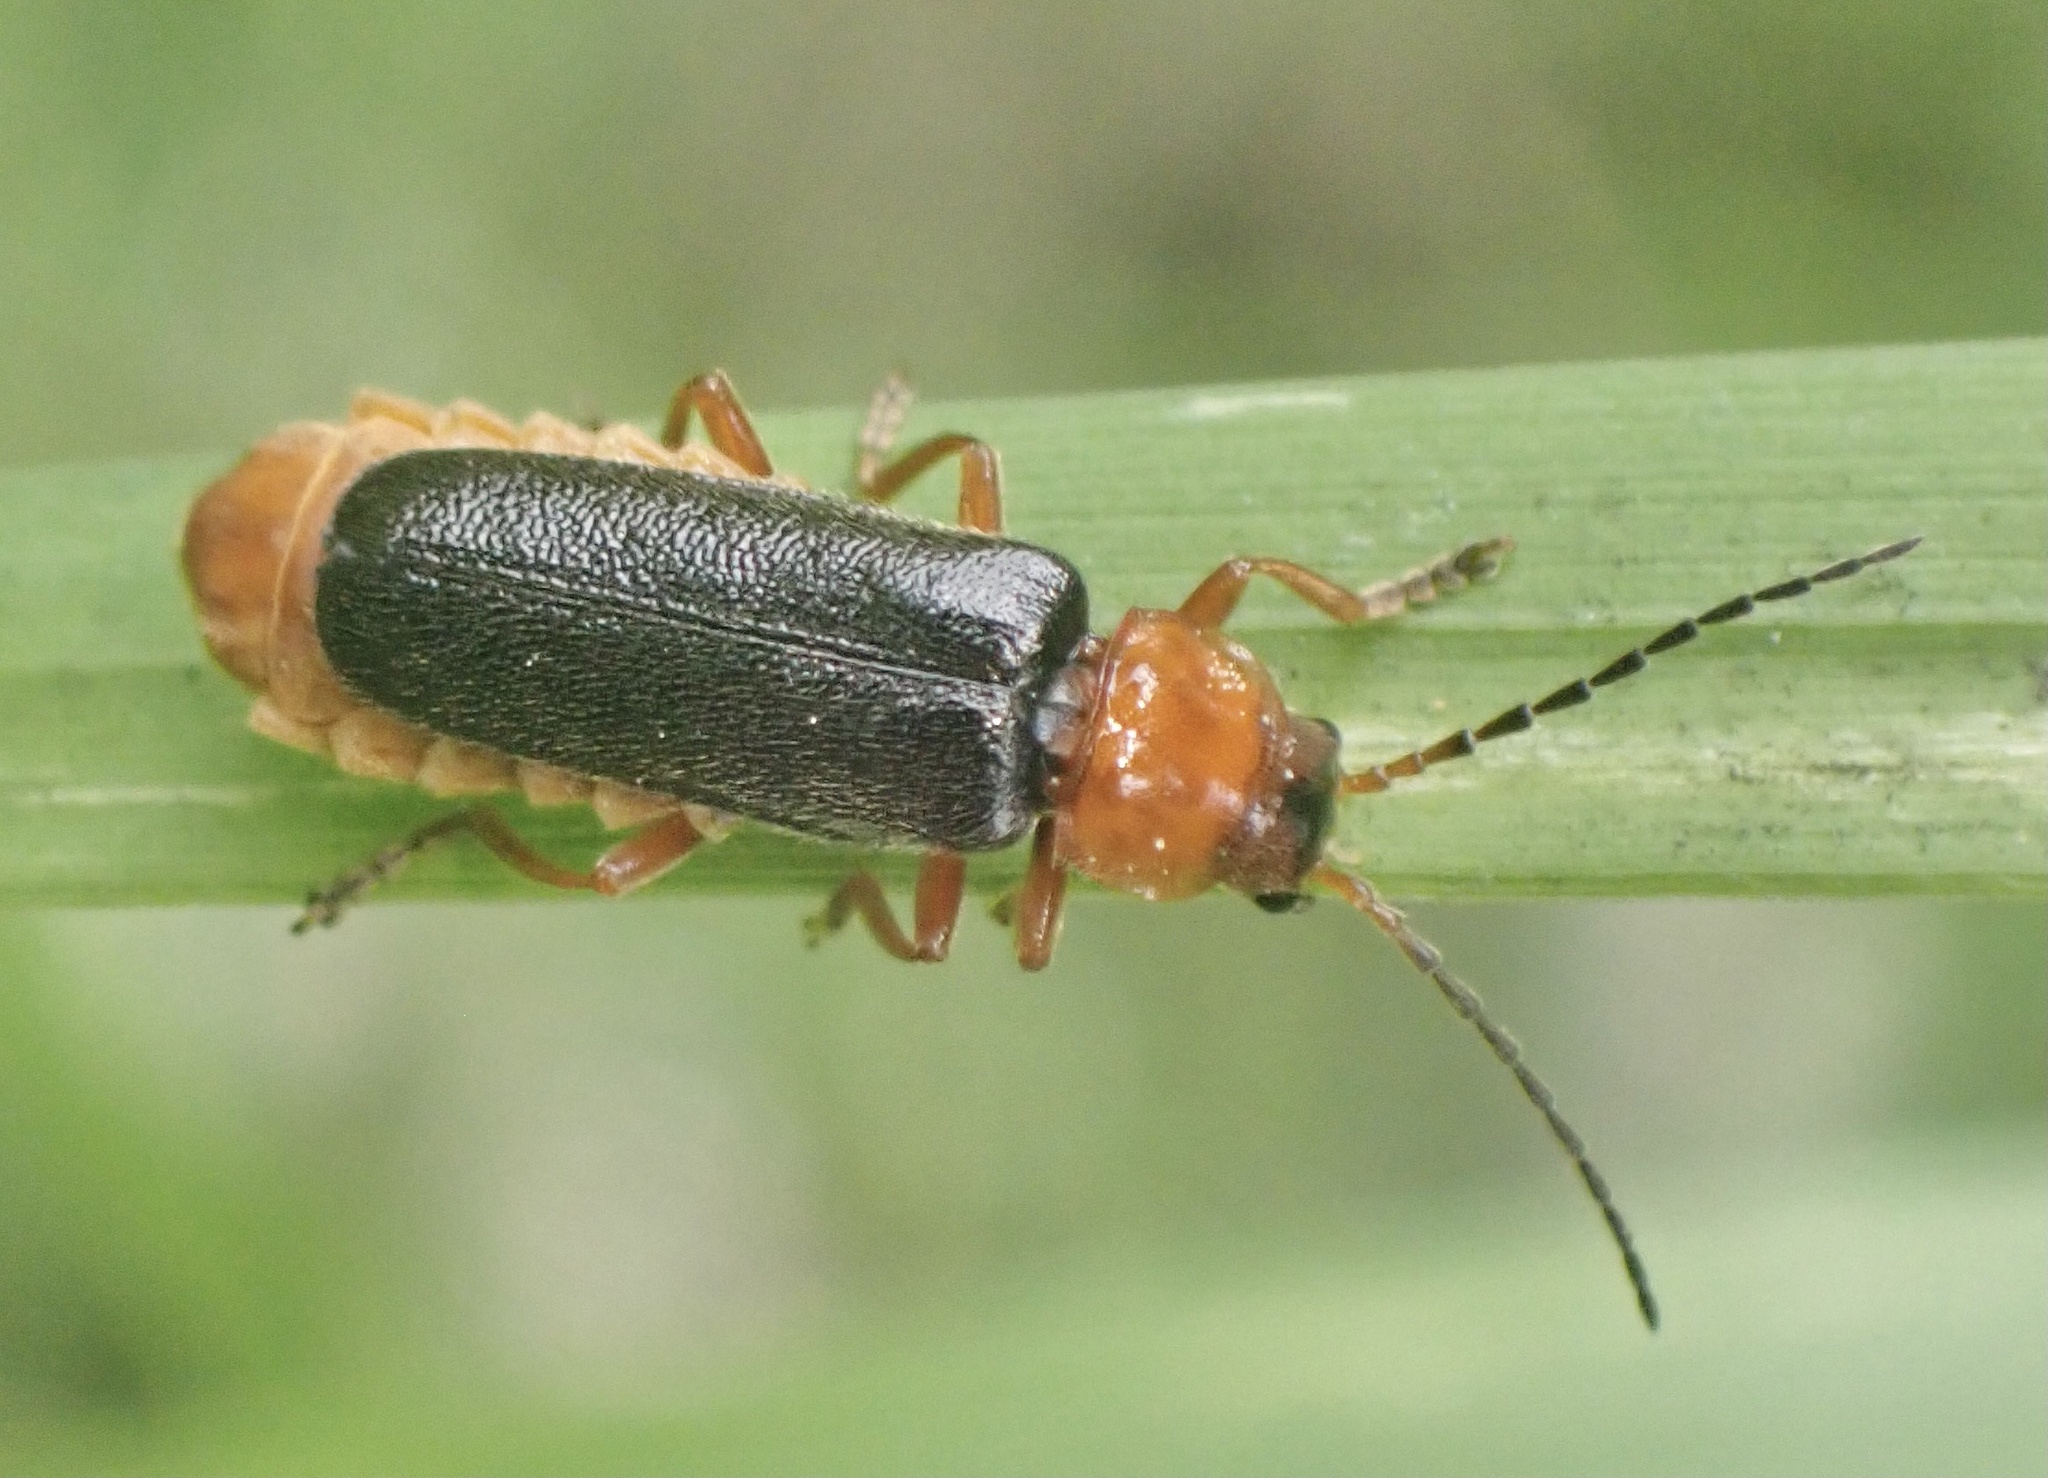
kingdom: Animalia
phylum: Arthropoda
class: Insecta
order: Coleoptera
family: Cantharidae
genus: Cantharis
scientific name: Cantharis flavilabris
